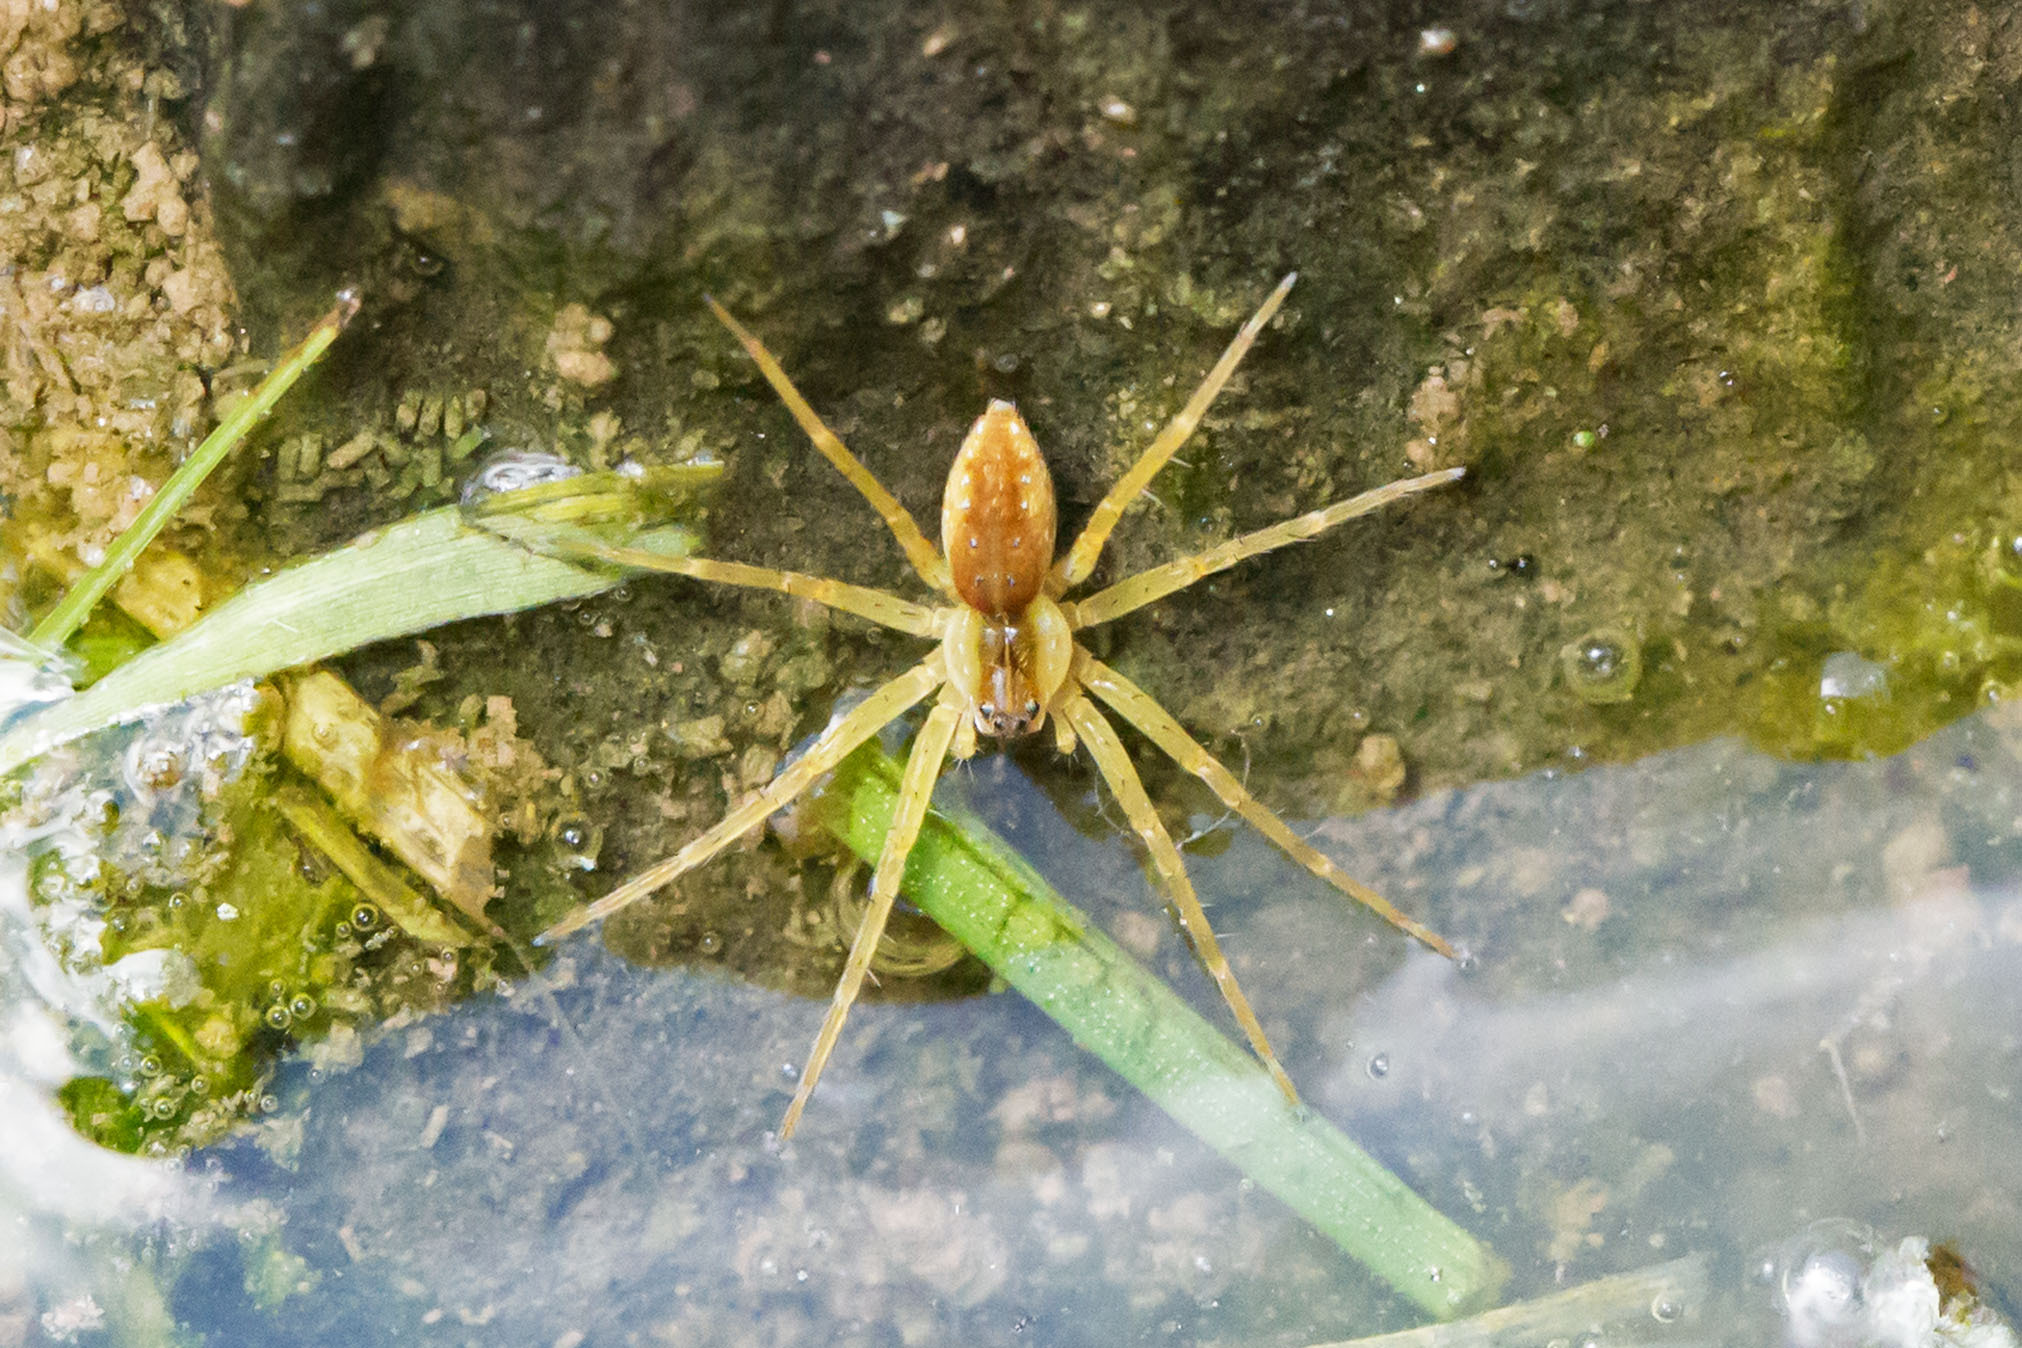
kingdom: Animalia
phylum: Arthropoda
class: Arachnida
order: Araneae
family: Pisauridae
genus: Dolomedes
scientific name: Dolomedes triton
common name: Six-spotted fishing spider
